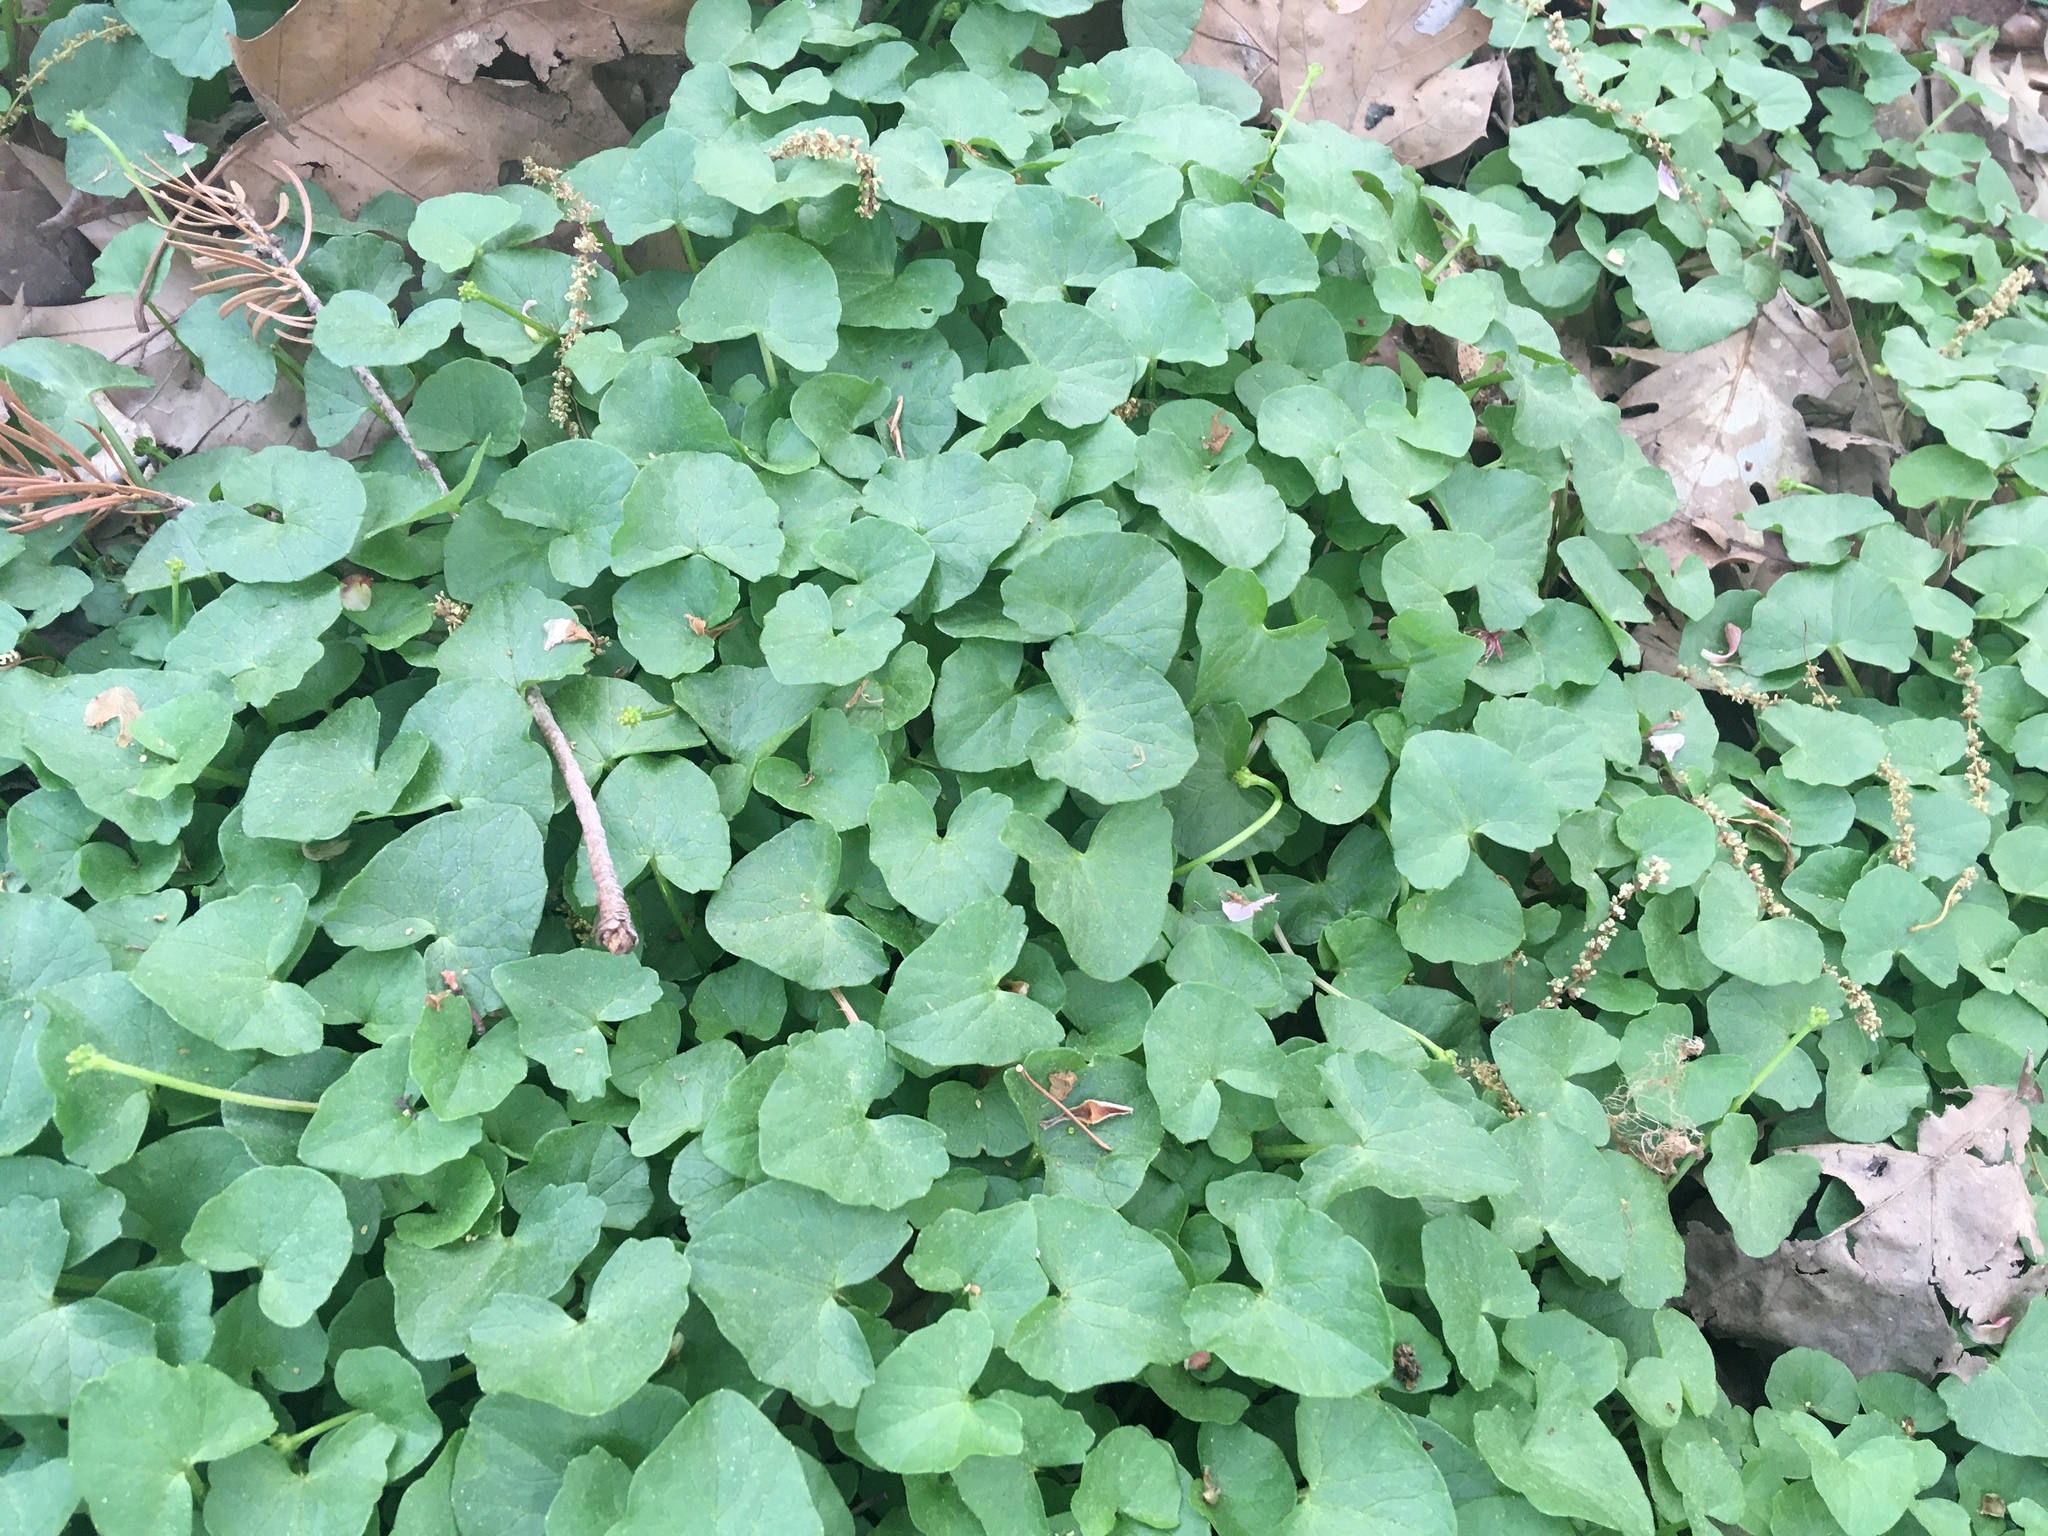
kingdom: Plantae
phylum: Tracheophyta
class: Magnoliopsida
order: Ranunculales
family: Ranunculaceae
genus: Ficaria
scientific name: Ficaria verna
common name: Lesser celandine
